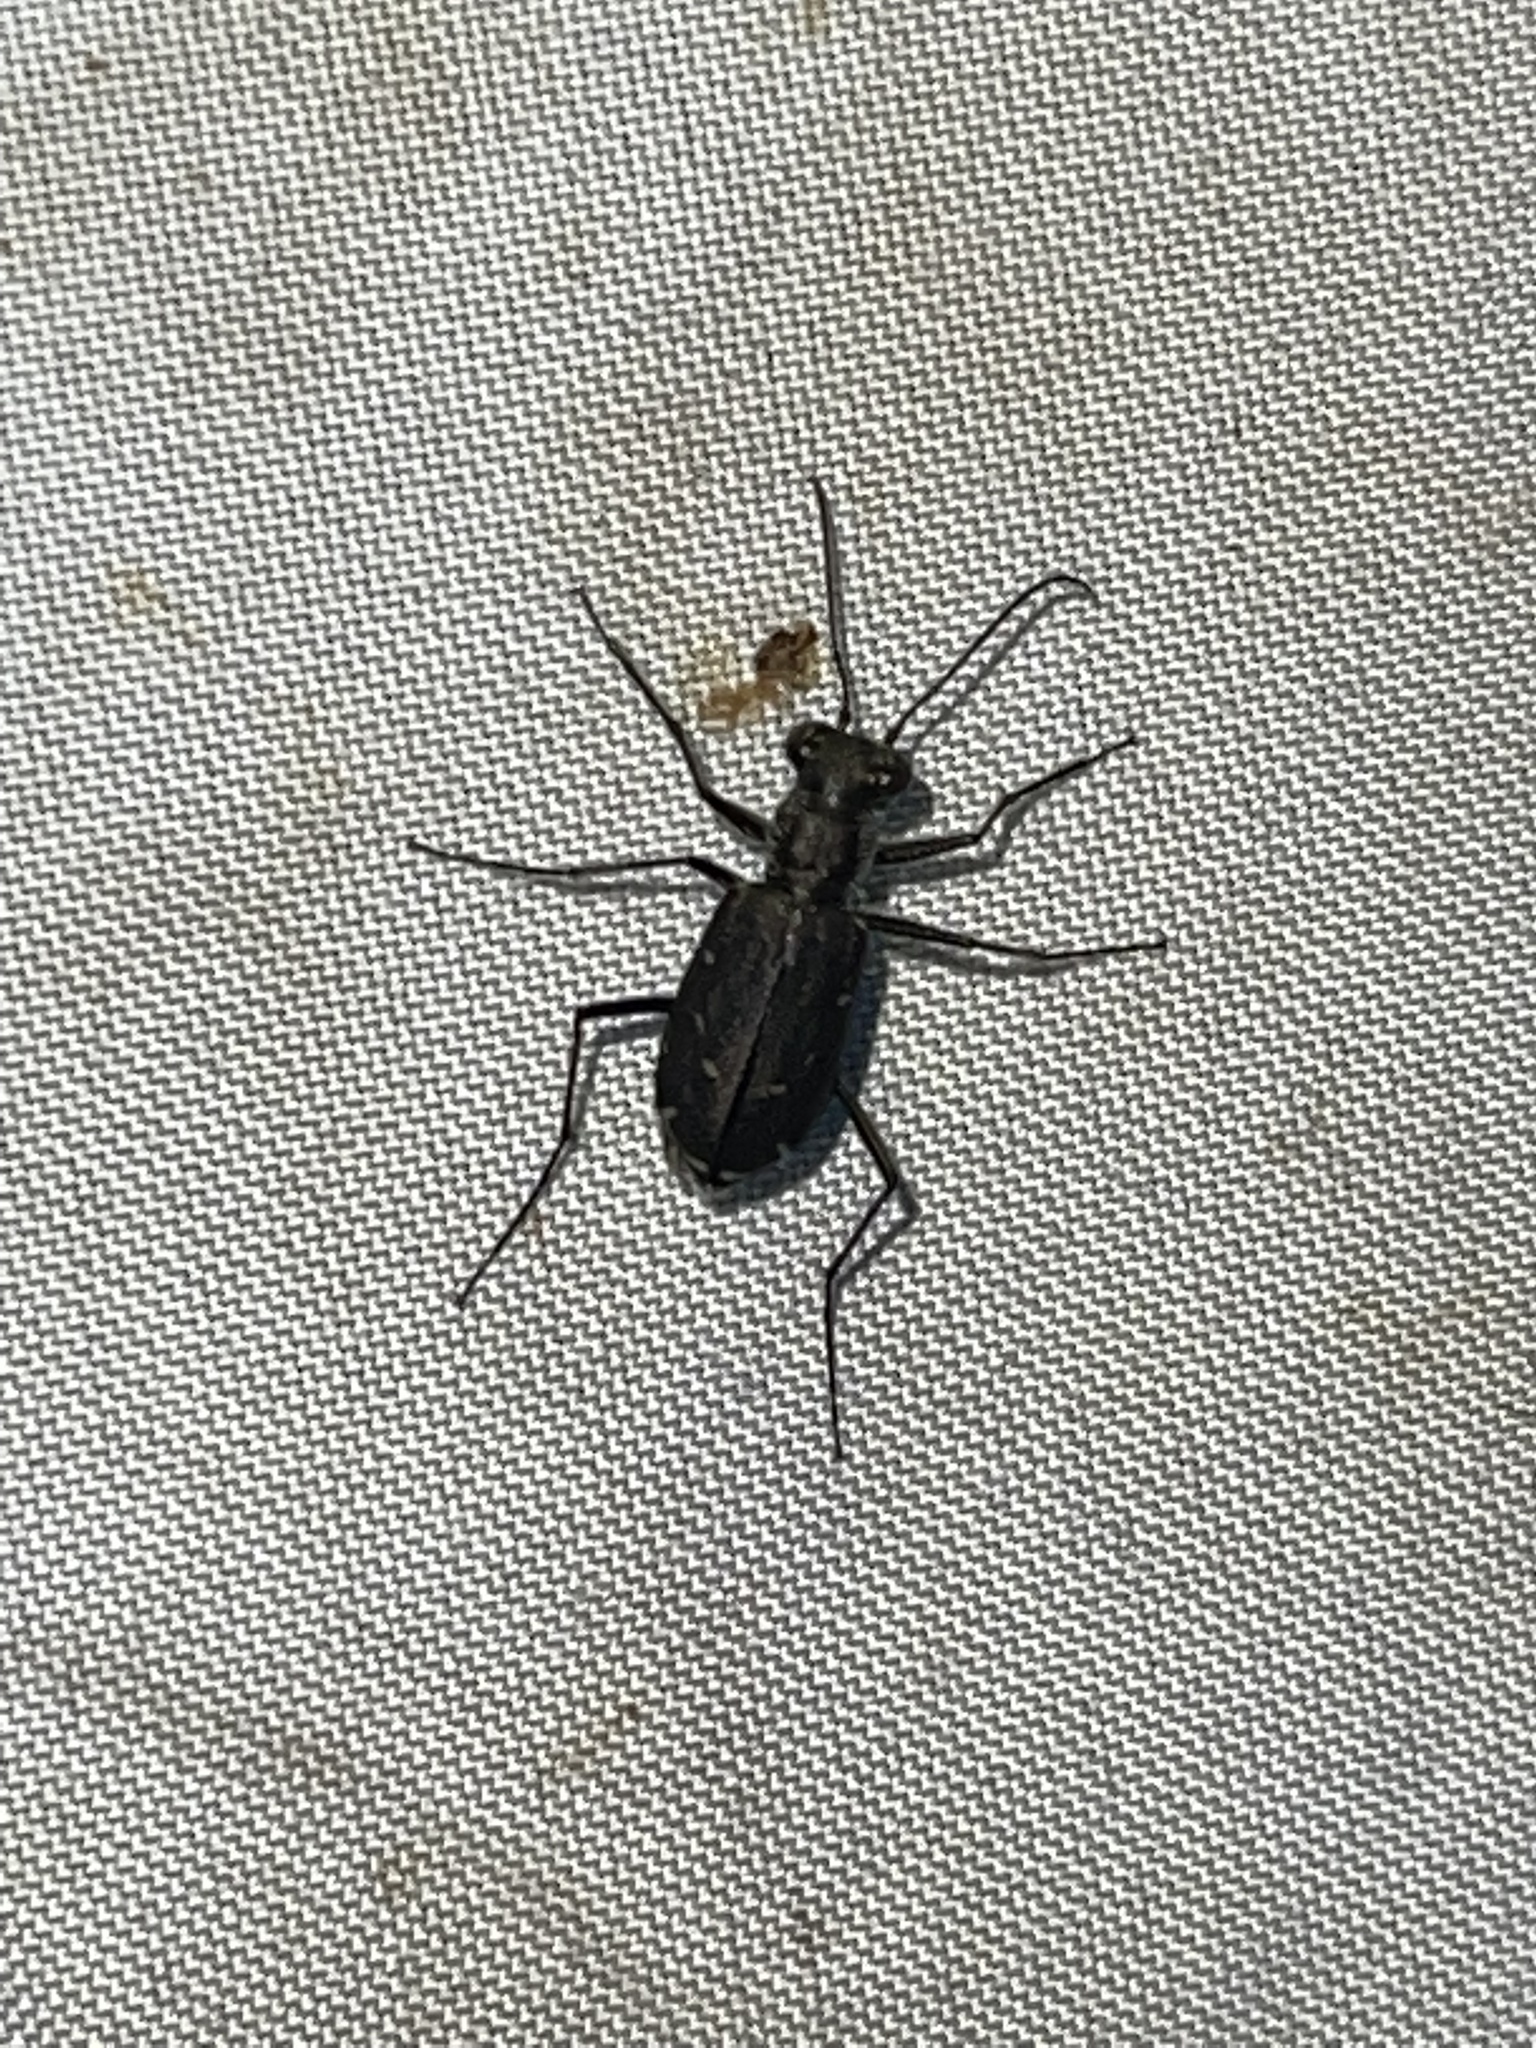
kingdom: Animalia
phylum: Arthropoda
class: Insecta
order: Coleoptera
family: Carabidae
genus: Cicindela
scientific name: Cicindela punctulata
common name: Punctured tiger beetle
